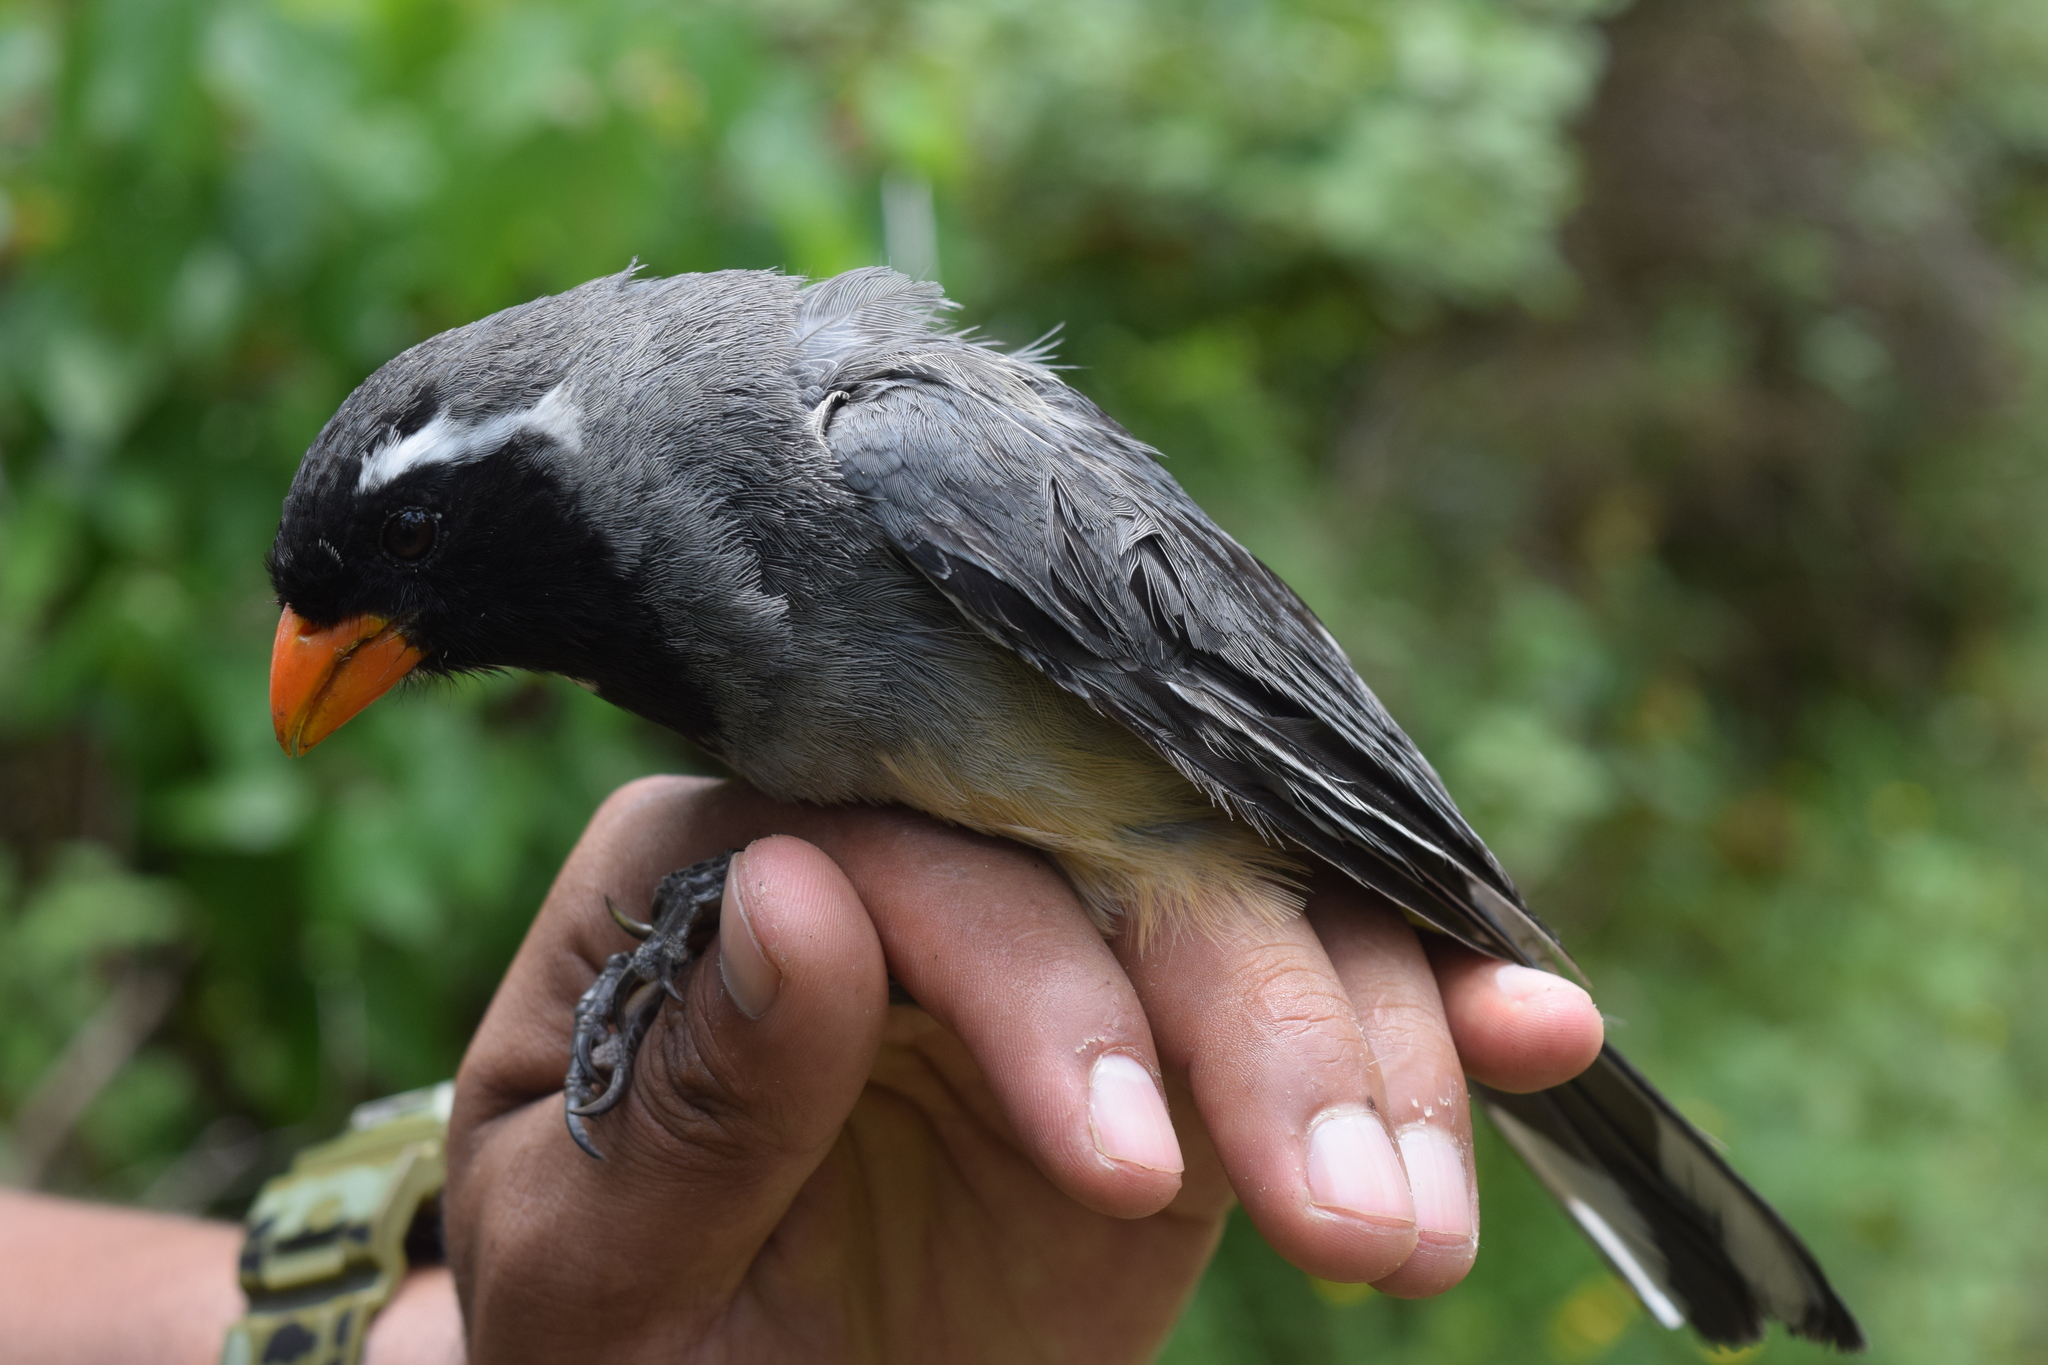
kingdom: Animalia
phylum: Chordata
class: Aves
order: Passeriformes
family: Thraupidae
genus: Saltator
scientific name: Saltator aurantiirostris
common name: Golden-billed saltator
